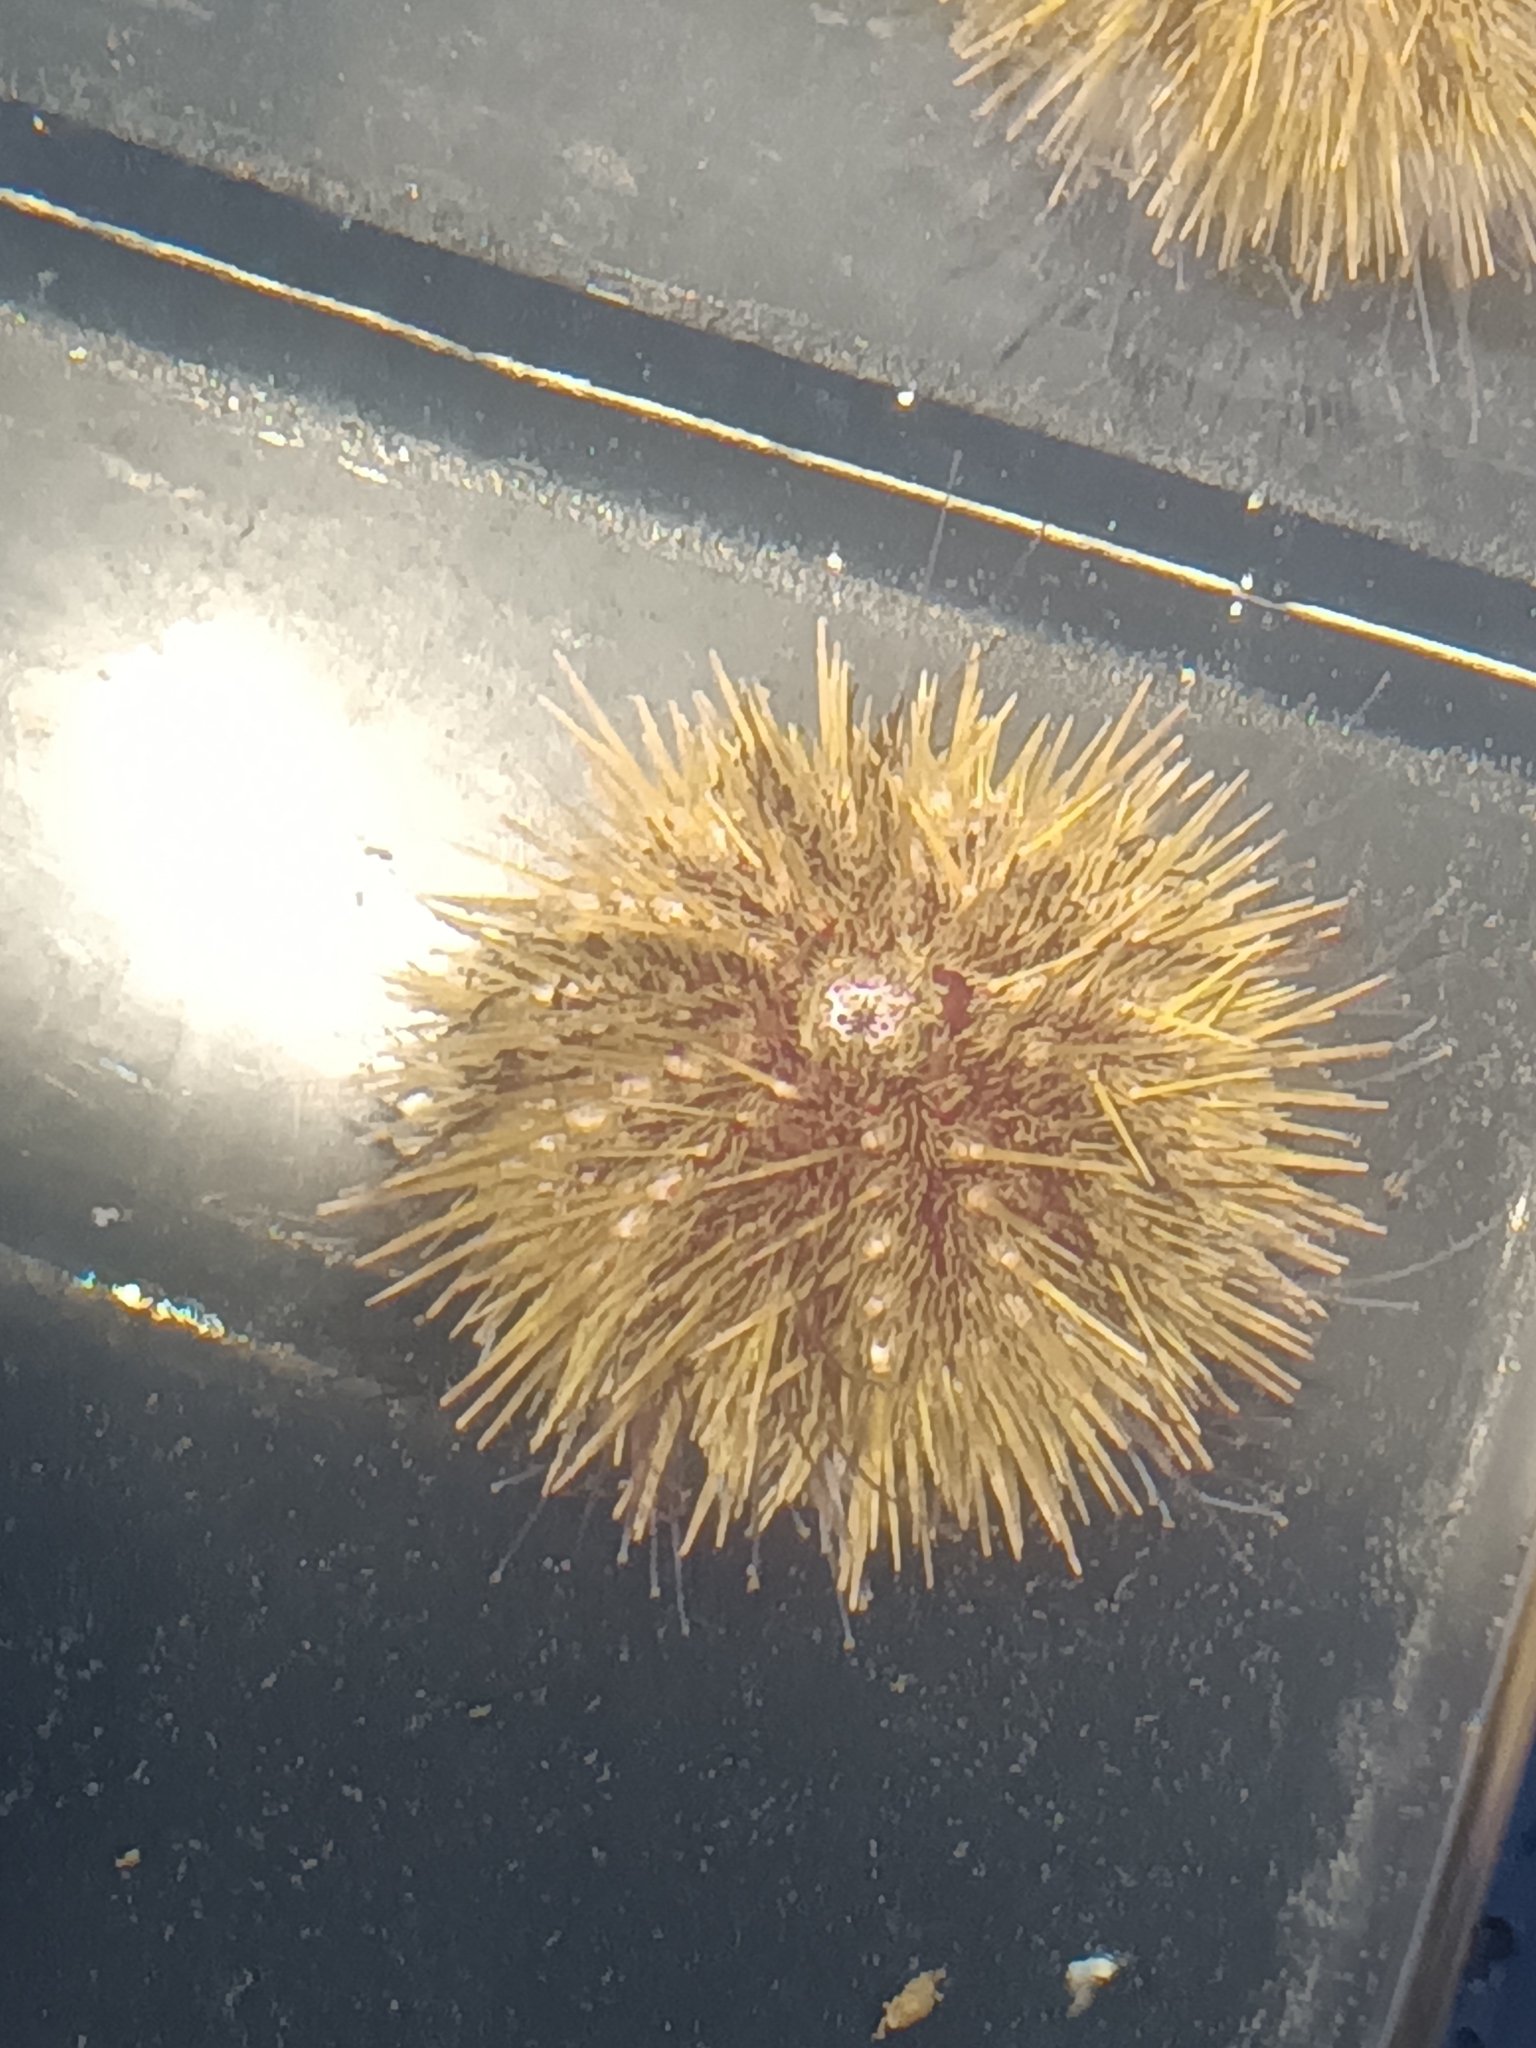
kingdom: Animalia
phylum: Echinodermata
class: Echinoidea
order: Camarodonta
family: Strongylocentrotidae
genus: Strongylocentrotus
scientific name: Strongylocentrotus droebachiensis
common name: Northern sea urchin
